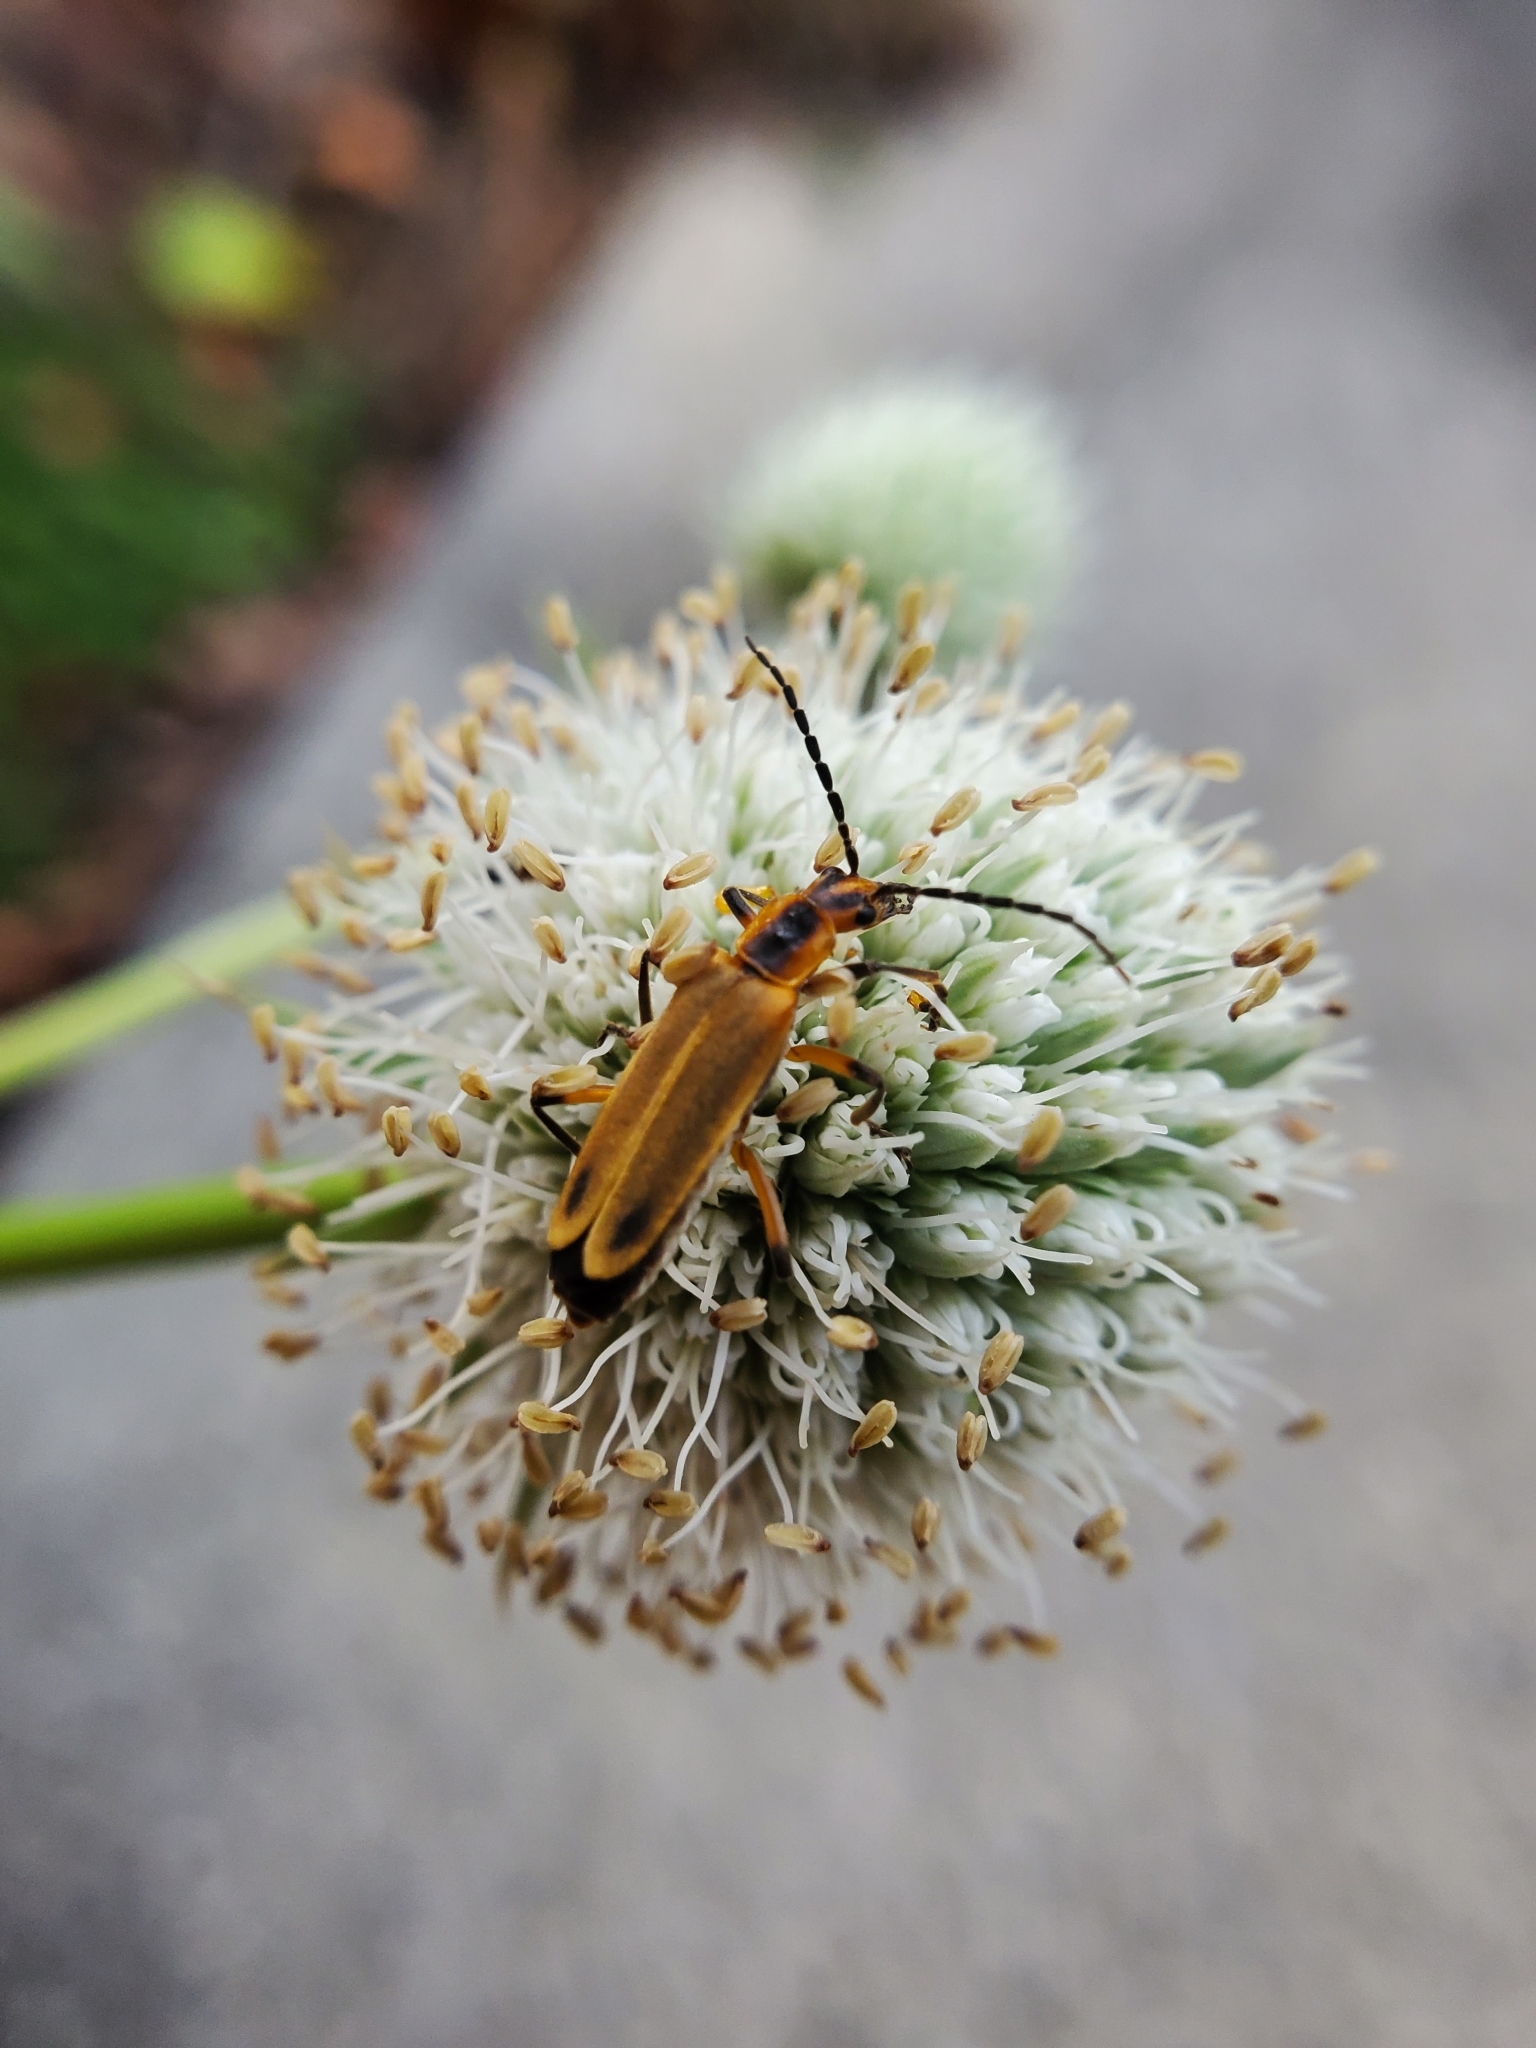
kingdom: Animalia
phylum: Arthropoda
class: Insecta
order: Coleoptera
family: Cantharidae
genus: Chauliognathus
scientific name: Chauliognathus marginatus
